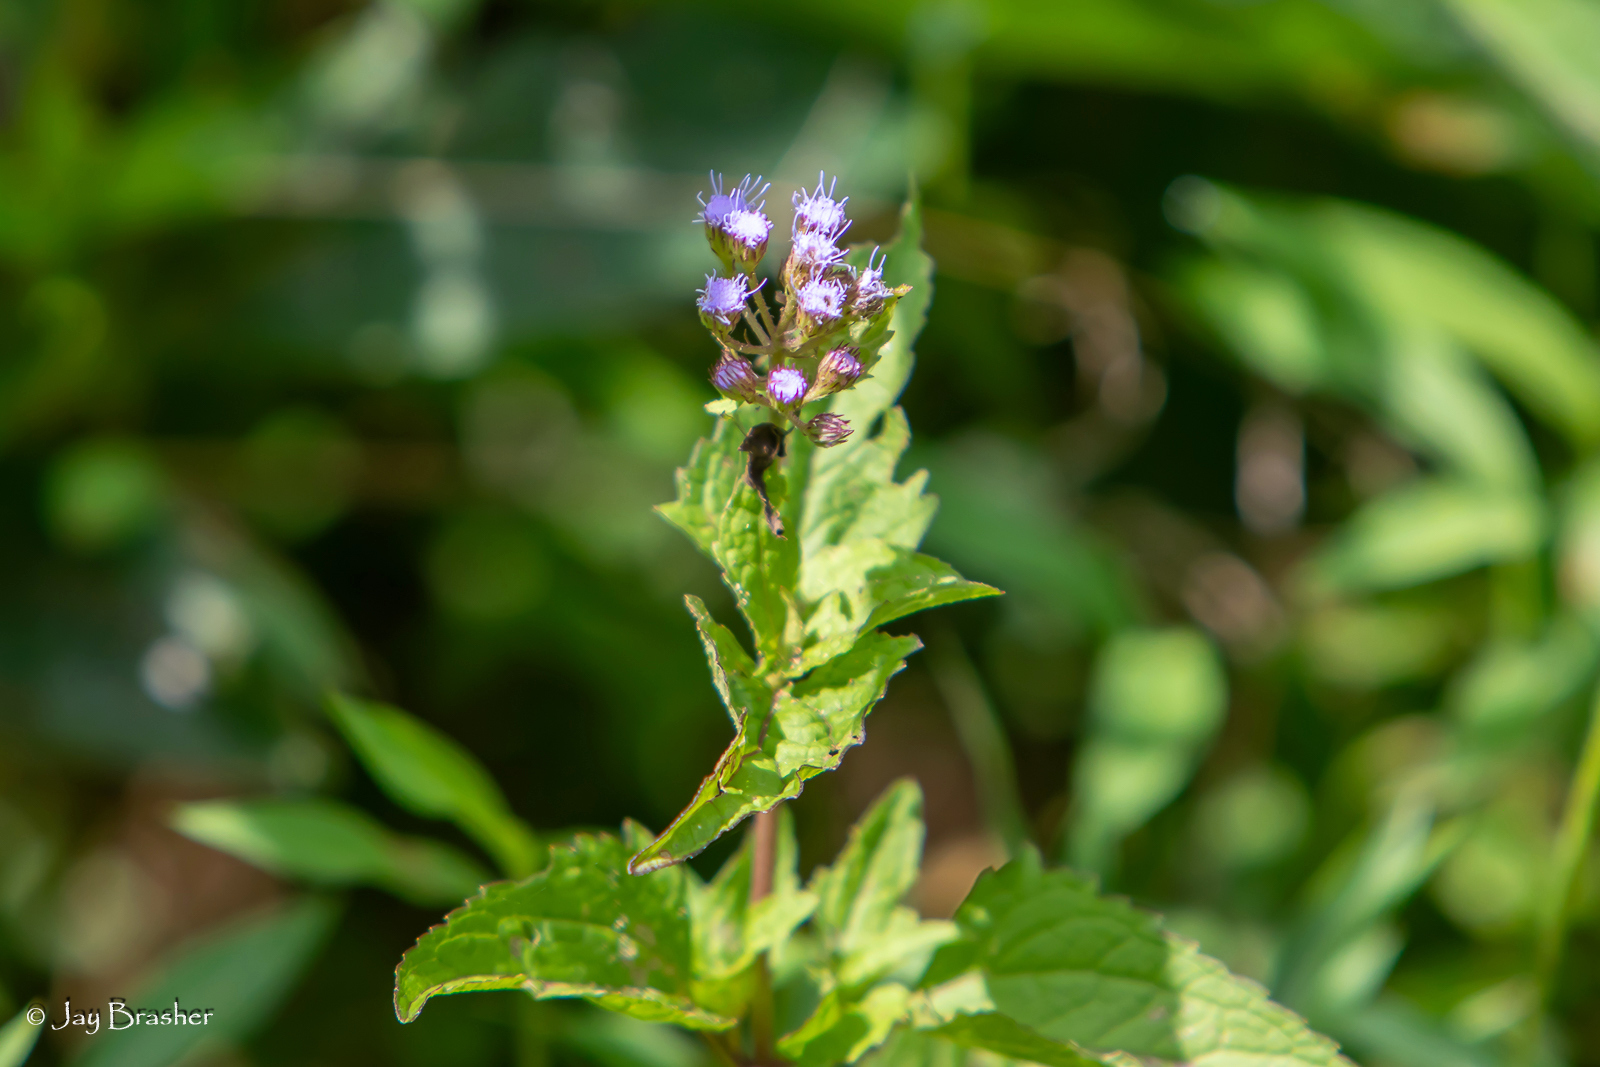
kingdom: Plantae
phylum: Tracheophyta
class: Magnoliopsida
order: Asterales
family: Asteraceae
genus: Conoclinium
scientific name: Conoclinium coelestinum
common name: Blue mistflower
